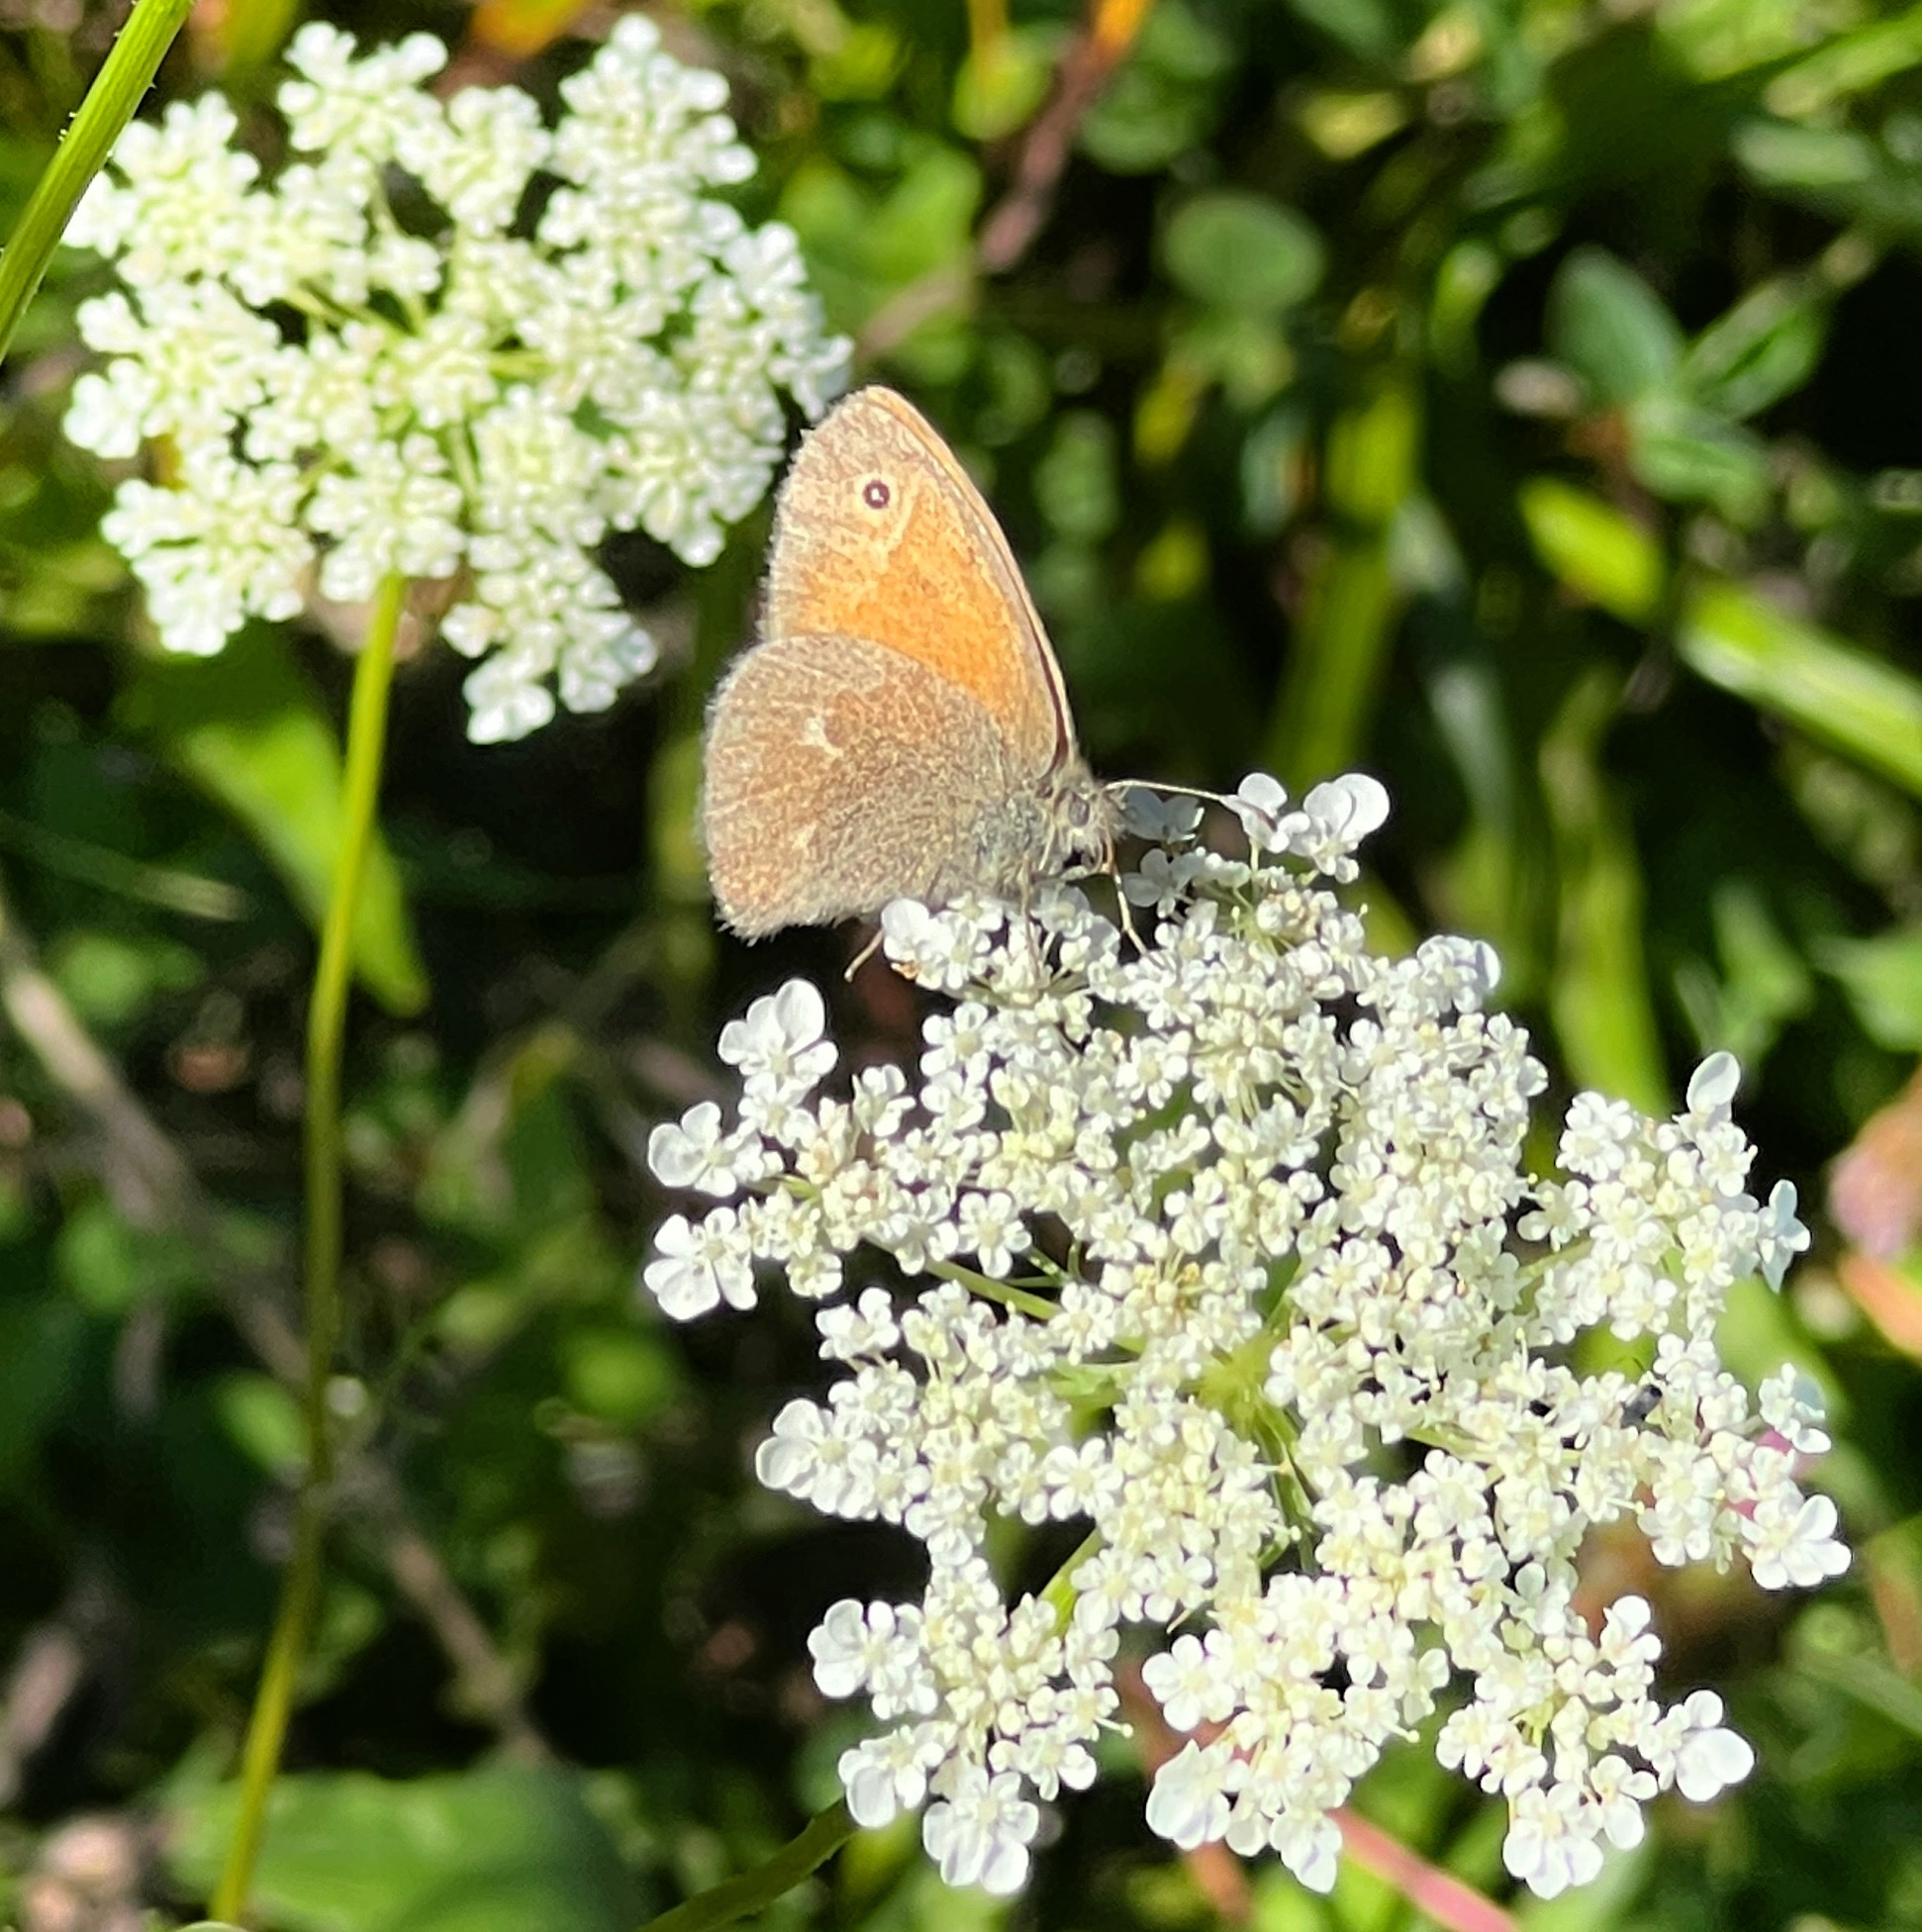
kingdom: Animalia
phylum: Arthropoda
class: Insecta
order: Lepidoptera
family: Nymphalidae
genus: Coenonympha
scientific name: Coenonympha california
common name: Common ringlet
